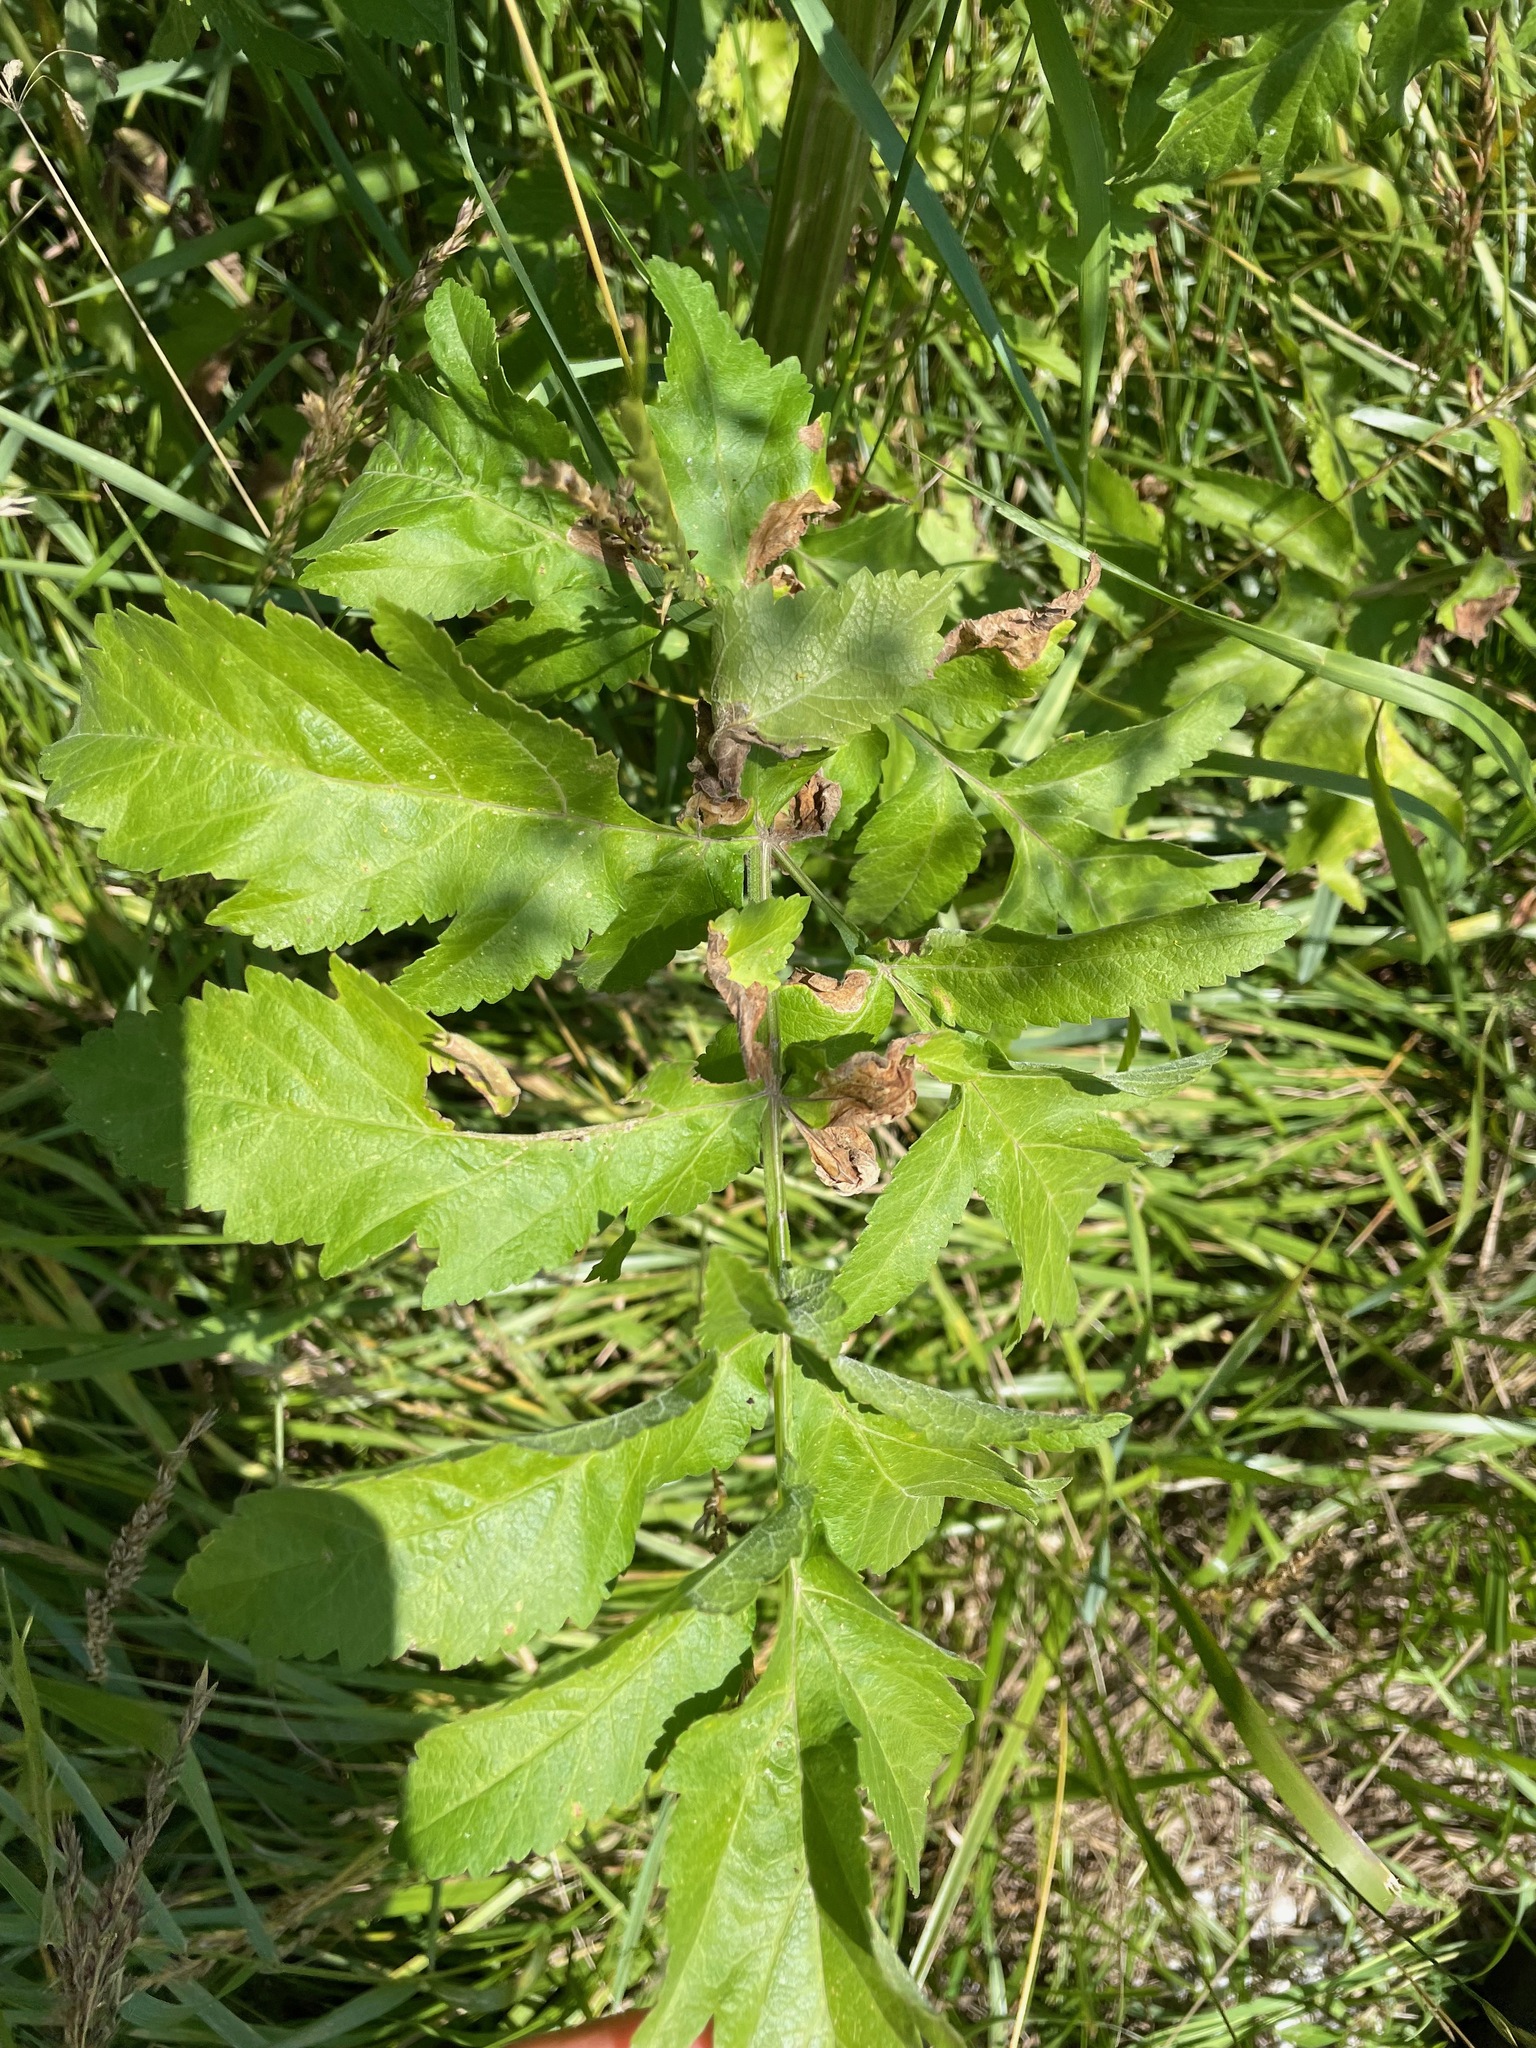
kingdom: Plantae
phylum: Tracheophyta
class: Magnoliopsida
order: Apiales
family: Apiaceae
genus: Pastinaca
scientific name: Pastinaca sativa
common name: Wild parsnip
